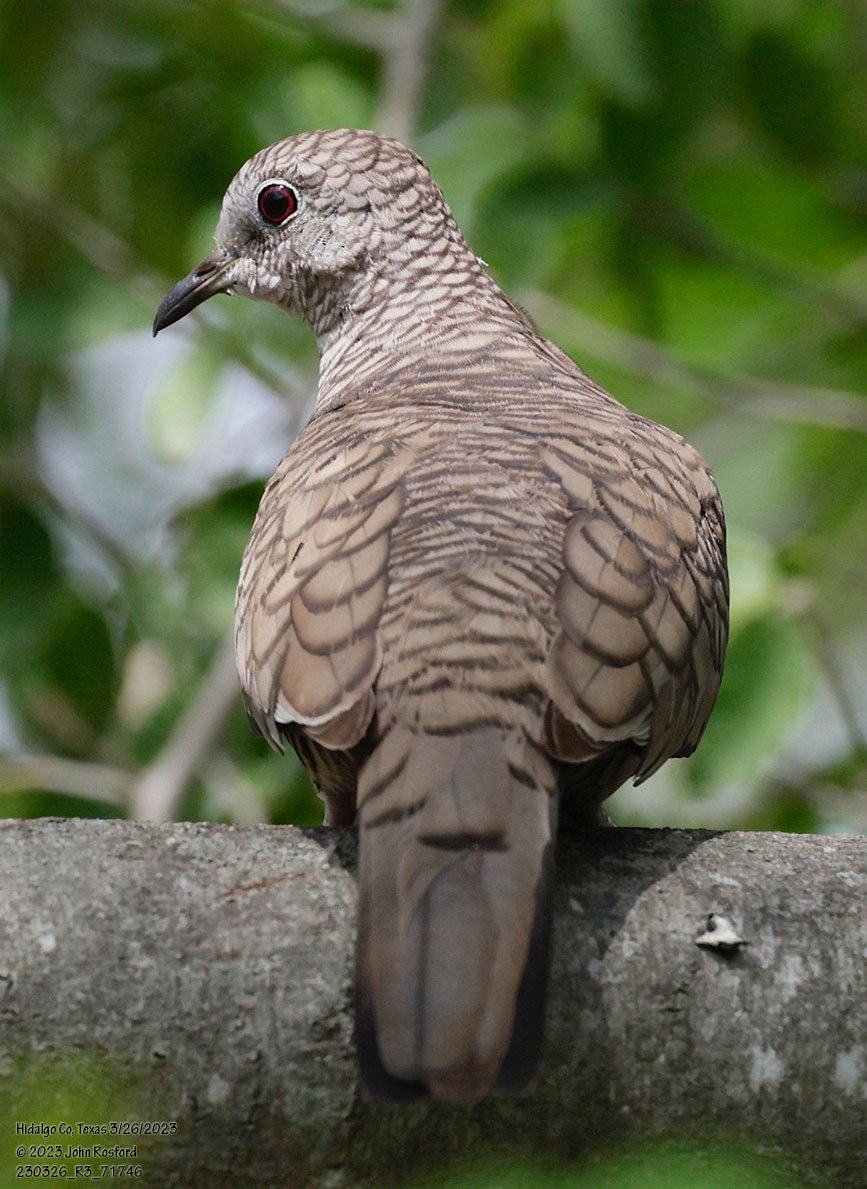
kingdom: Animalia
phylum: Chordata
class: Aves
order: Columbiformes
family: Columbidae
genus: Columbina
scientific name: Columbina inca
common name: Inca dove
